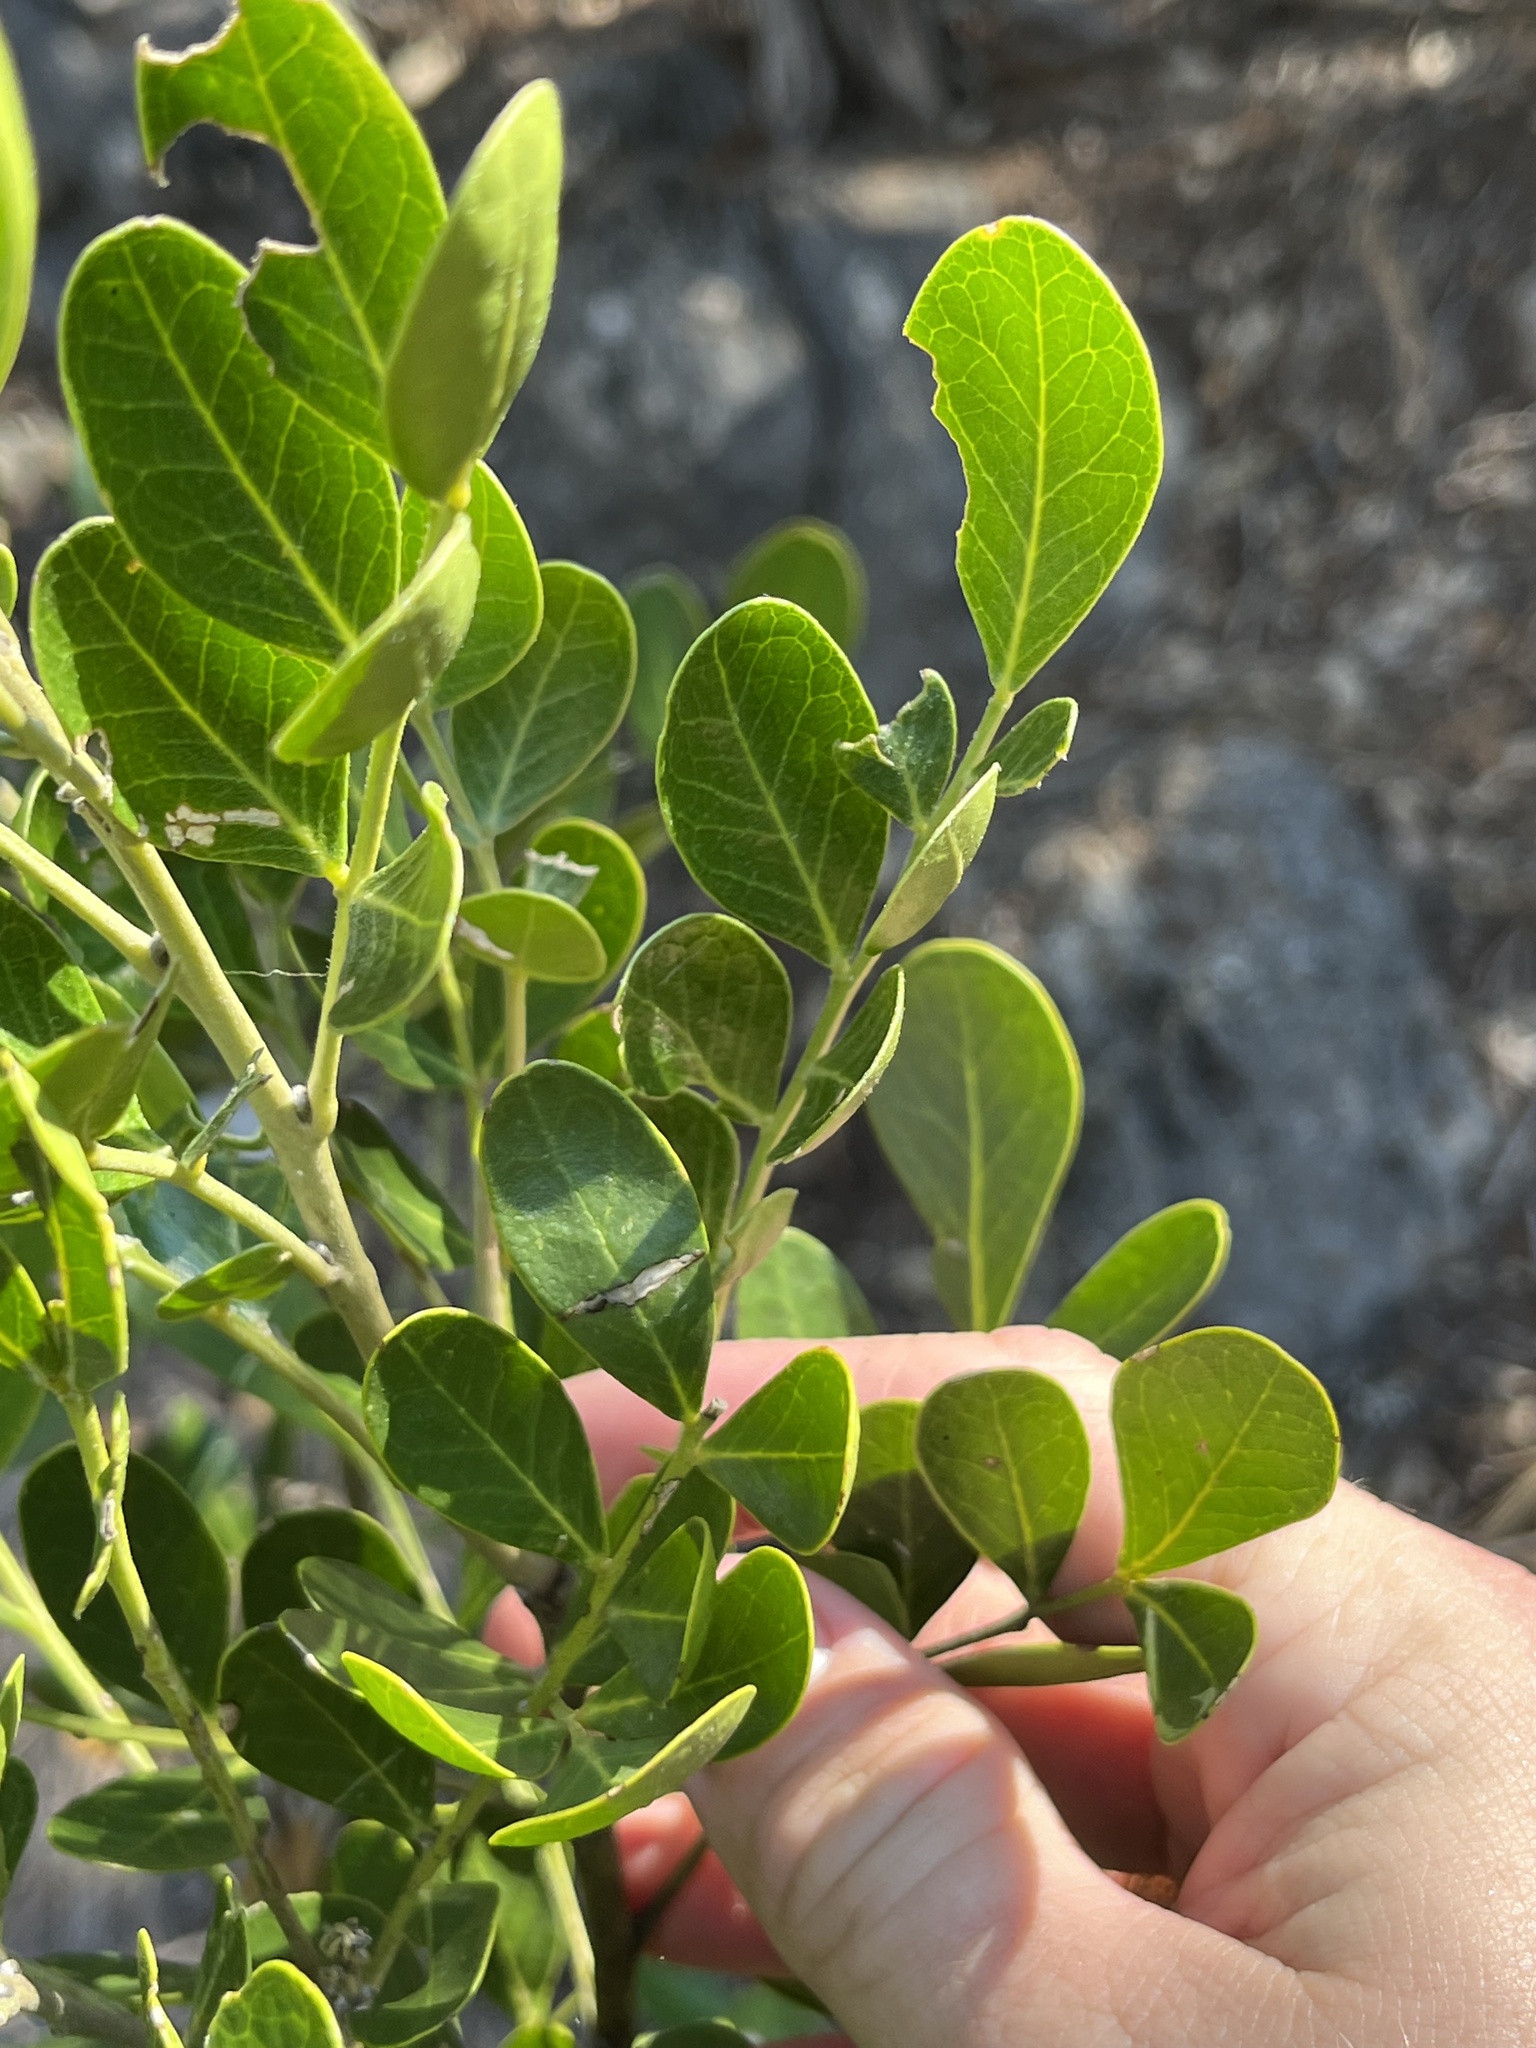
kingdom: Plantae
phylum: Tracheophyta
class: Magnoliopsida
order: Fabales
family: Fabaceae
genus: Dermatophyllum
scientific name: Dermatophyllum secundiflorum
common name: Texas-mountain-laurel
